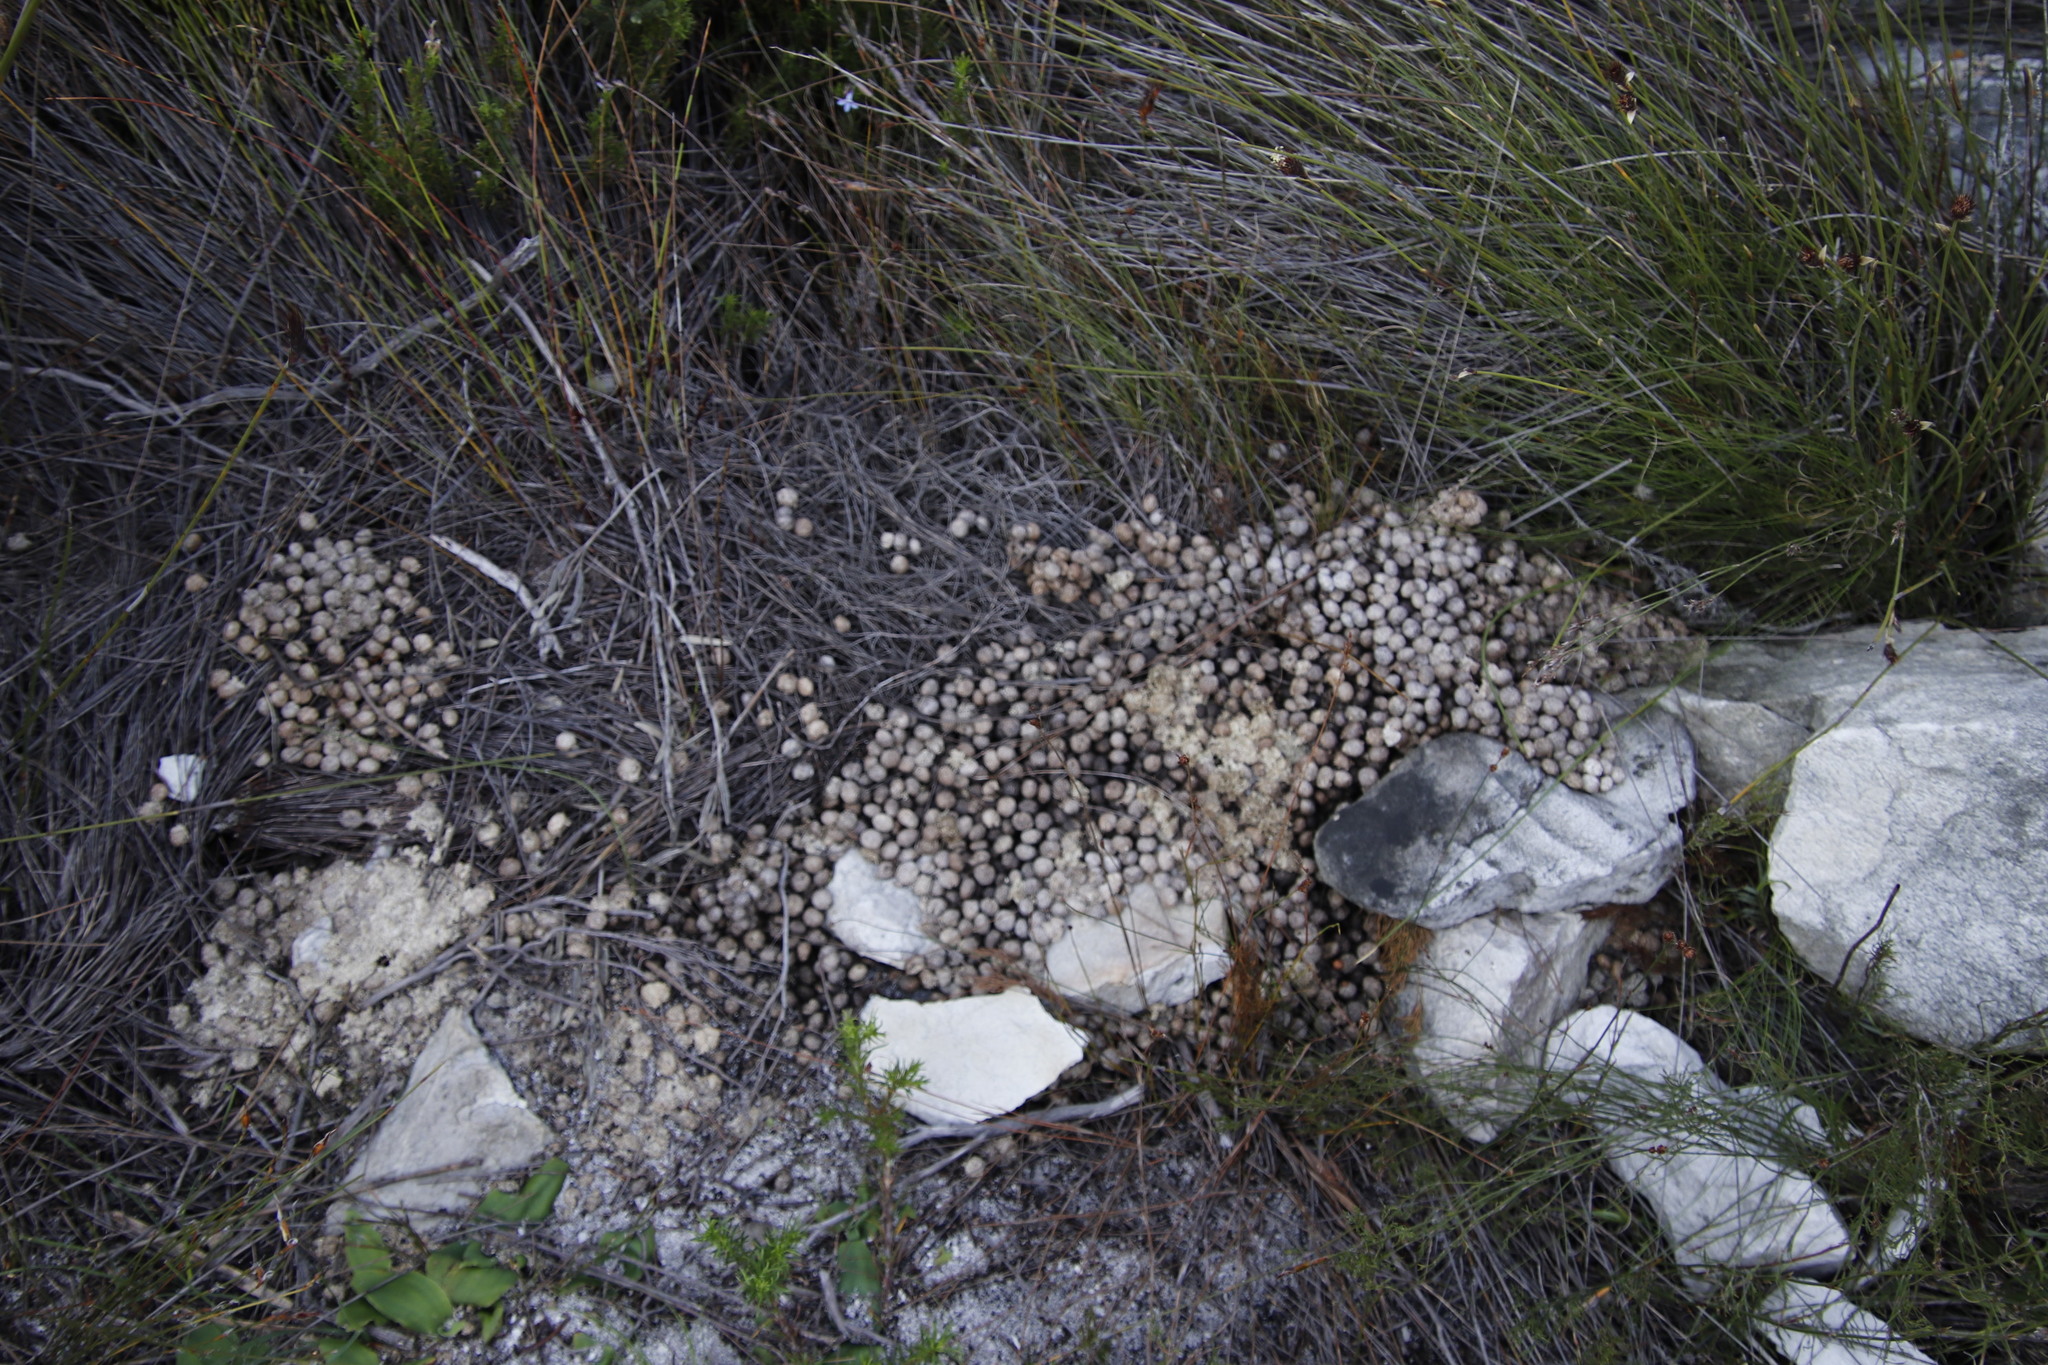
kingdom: Animalia
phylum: Chordata
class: Mammalia
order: Lagomorpha
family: Leporidae
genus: Pronolagus
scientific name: Pronolagus saundersiae
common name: Hewitt's red rock hare
